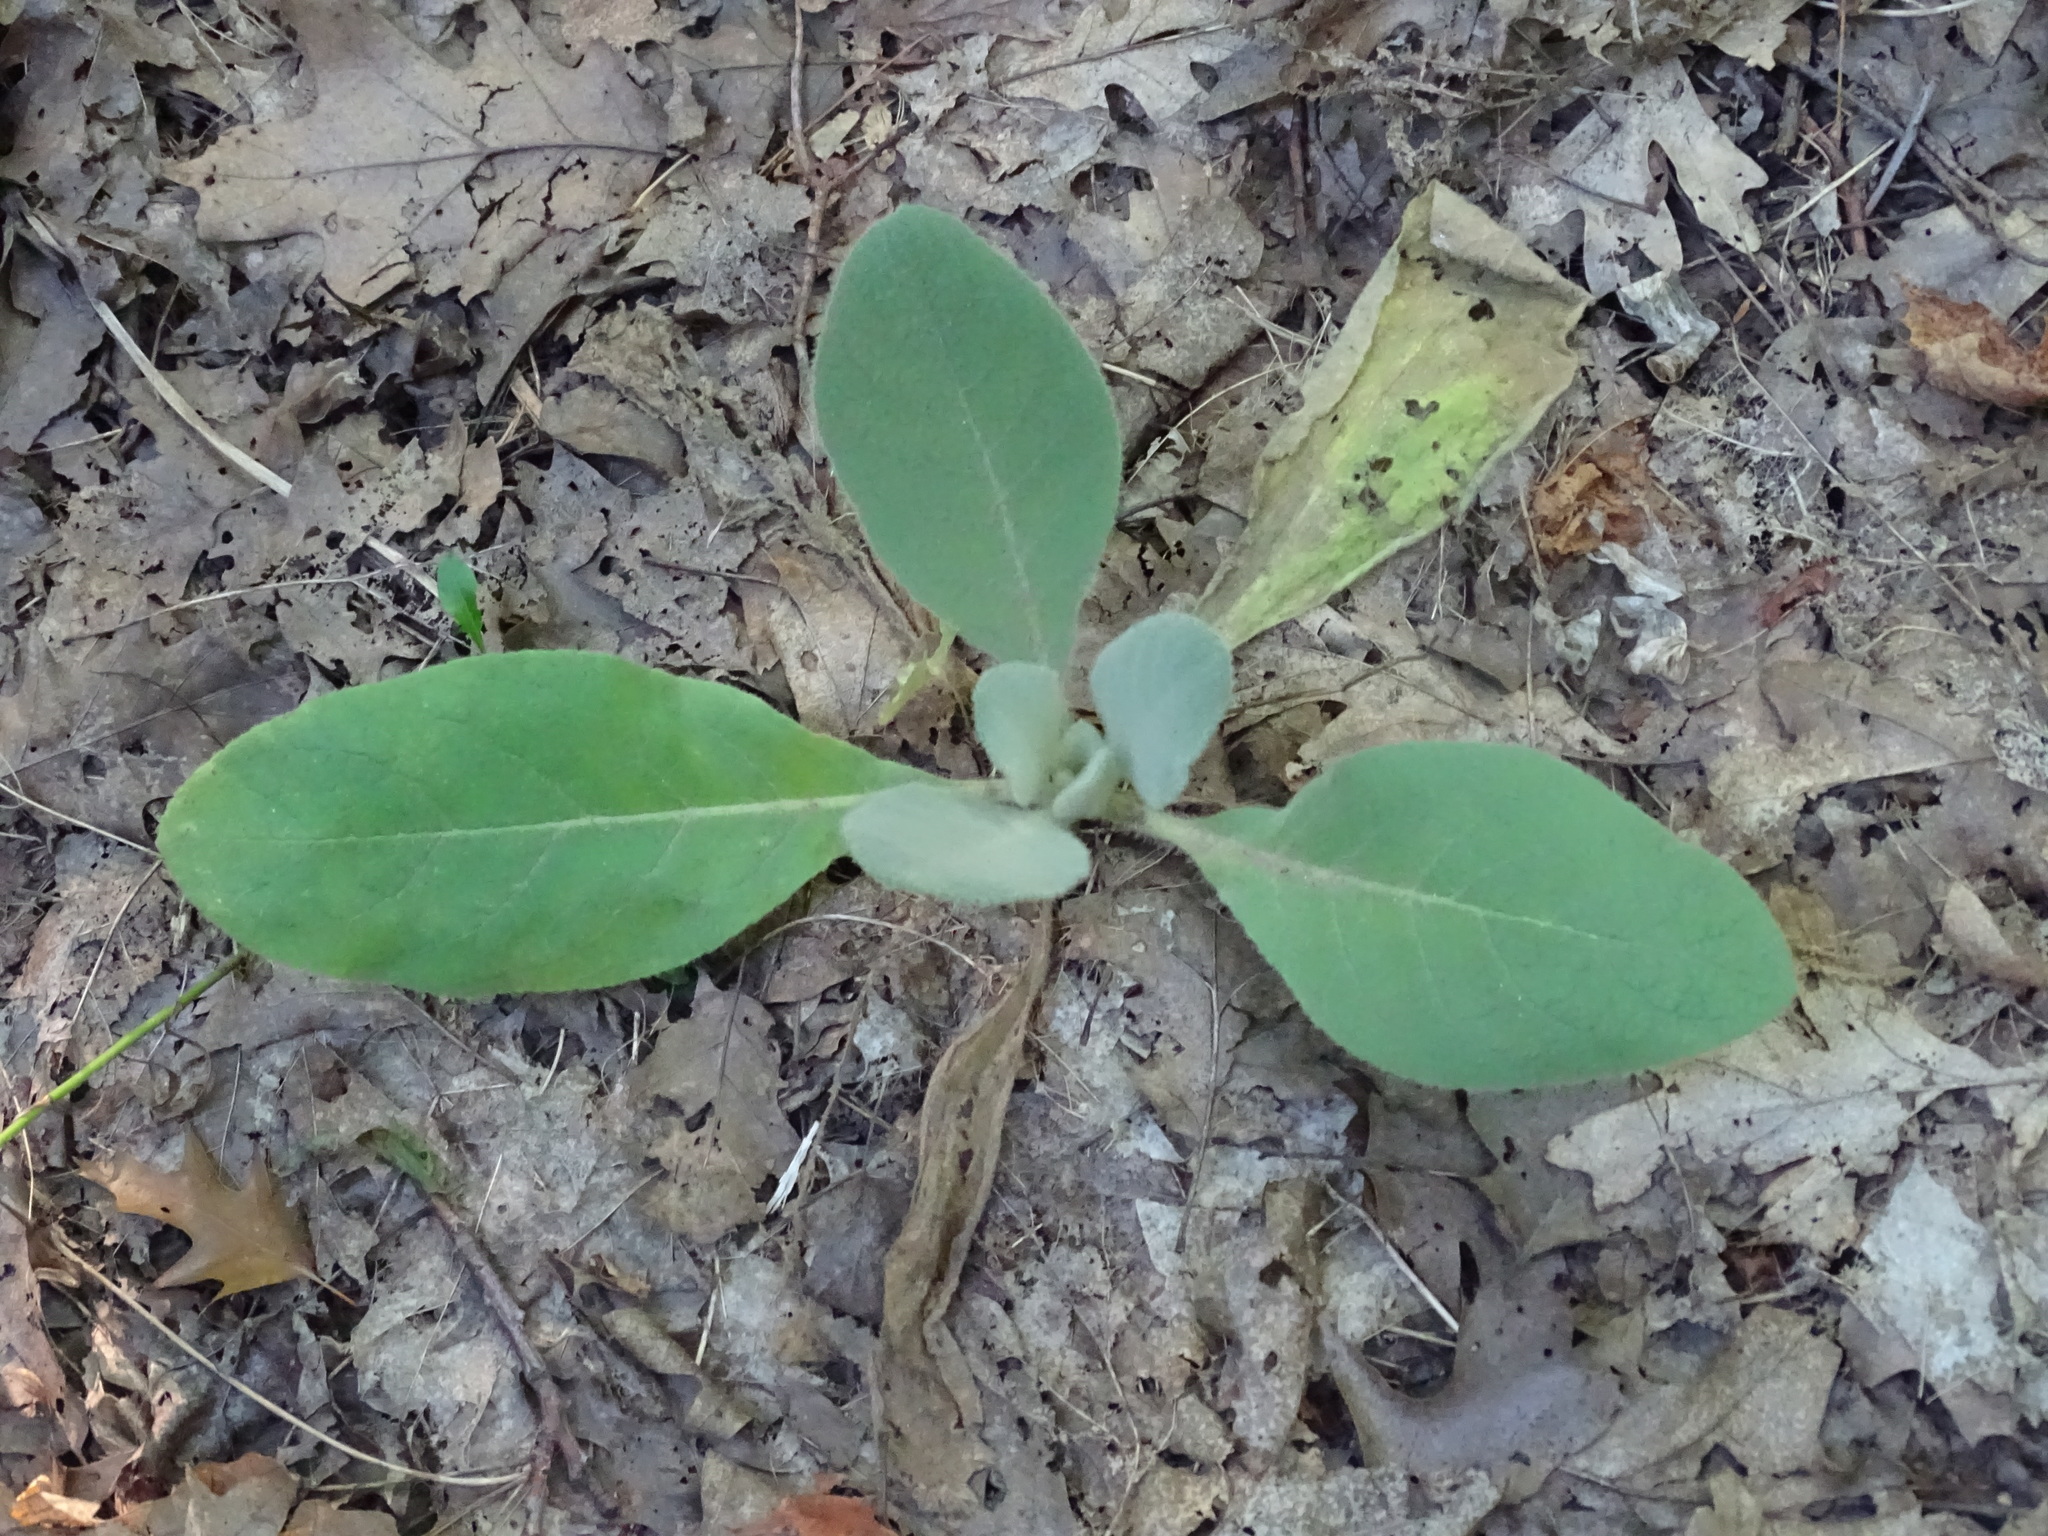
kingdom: Plantae
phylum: Tracheophyta
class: Magnoliopsida
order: Lamiales
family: Scrophulariaceae
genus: Verbascum
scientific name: Verbascum thapsus
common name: Common mullein
